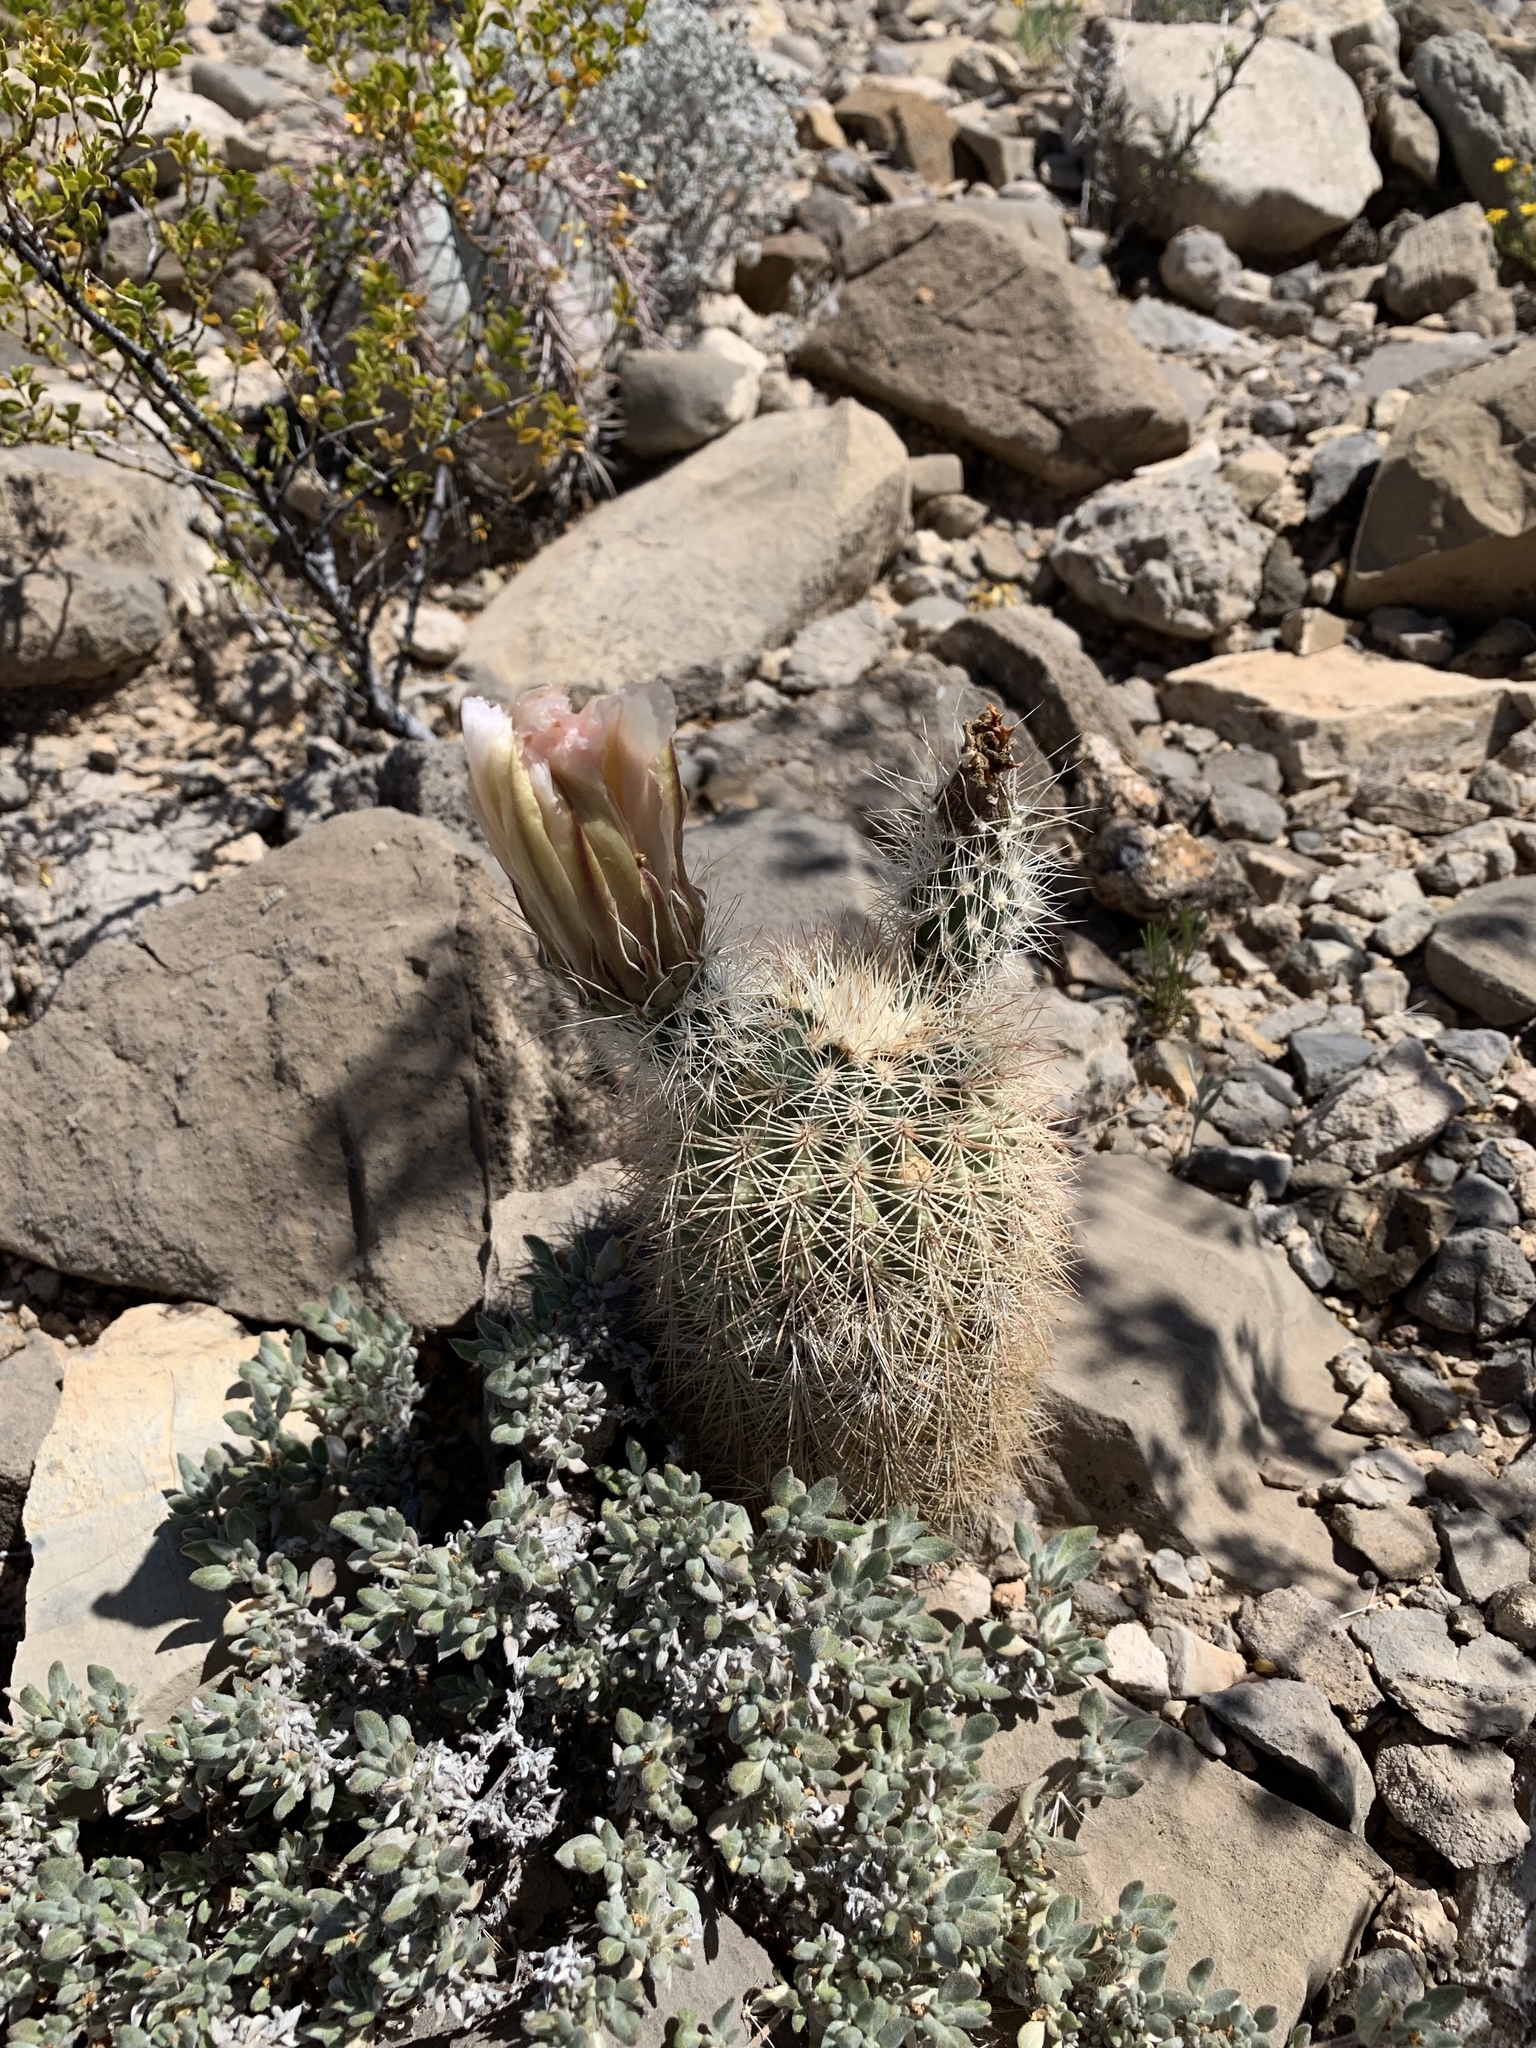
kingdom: Plantae
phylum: Tracheophyta
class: Magnoliopsida
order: Caryophyllales
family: Cactaceae
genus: Echinocereus
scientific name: Echinocereus dasyacanthus
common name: Spiny hedgehog cactus
